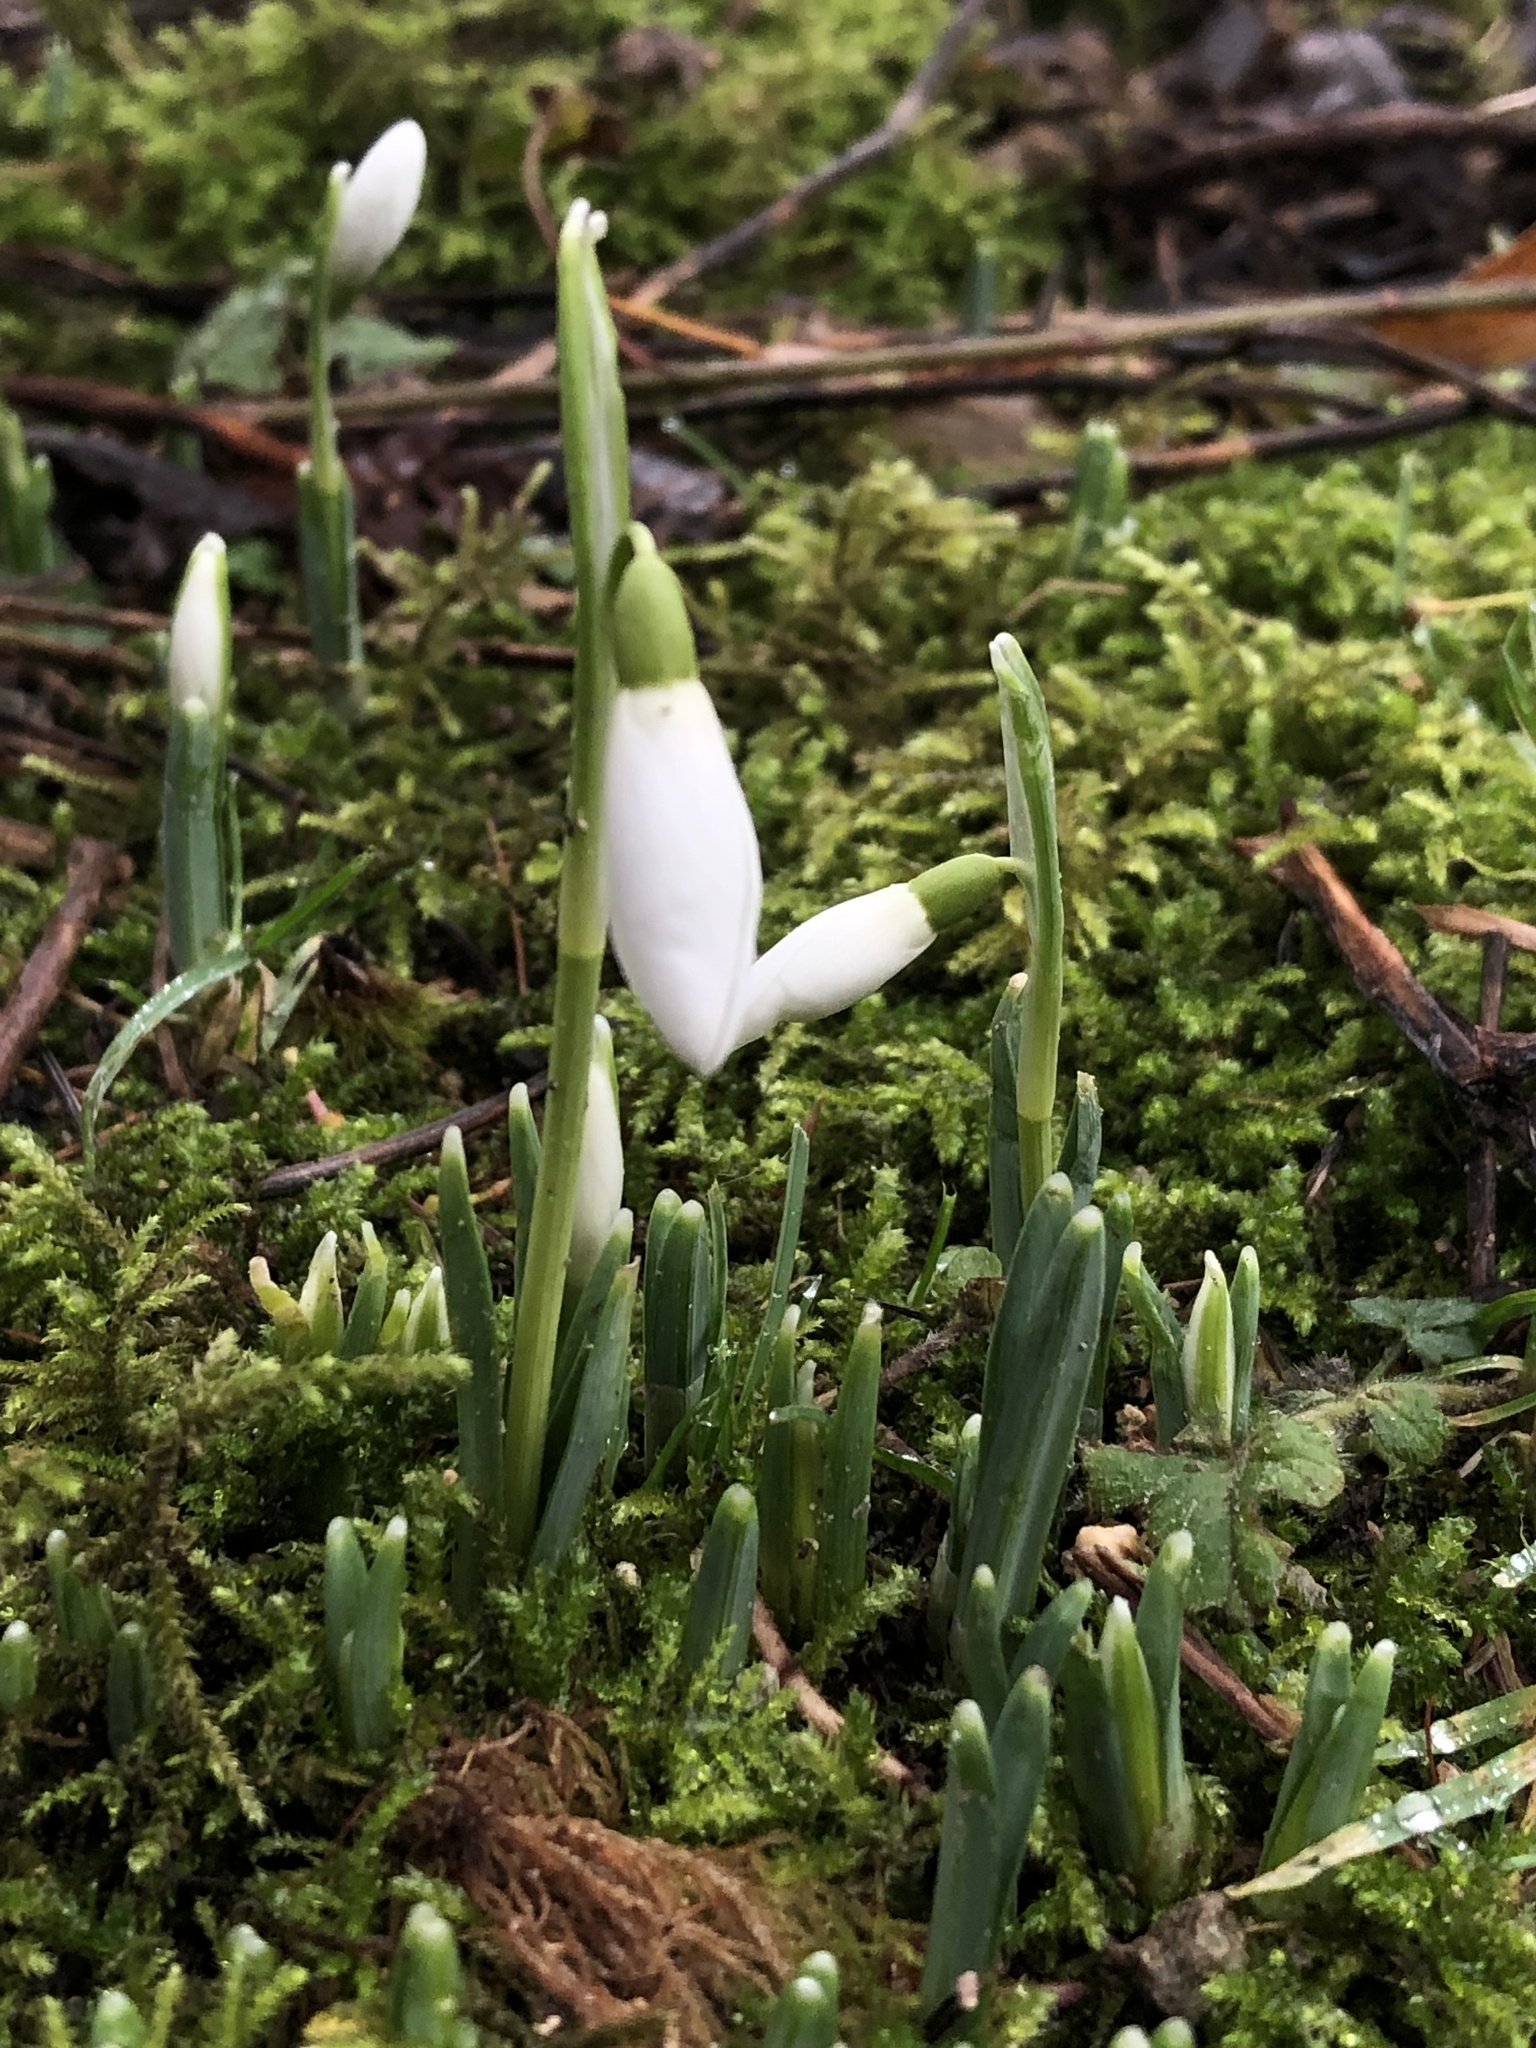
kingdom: Plantae
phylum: Tracheophyta
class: Liliopsida
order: Asparagales
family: Amaryllidaceae
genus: Galanthus
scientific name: Galanthus nivalis
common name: Snowdrop
